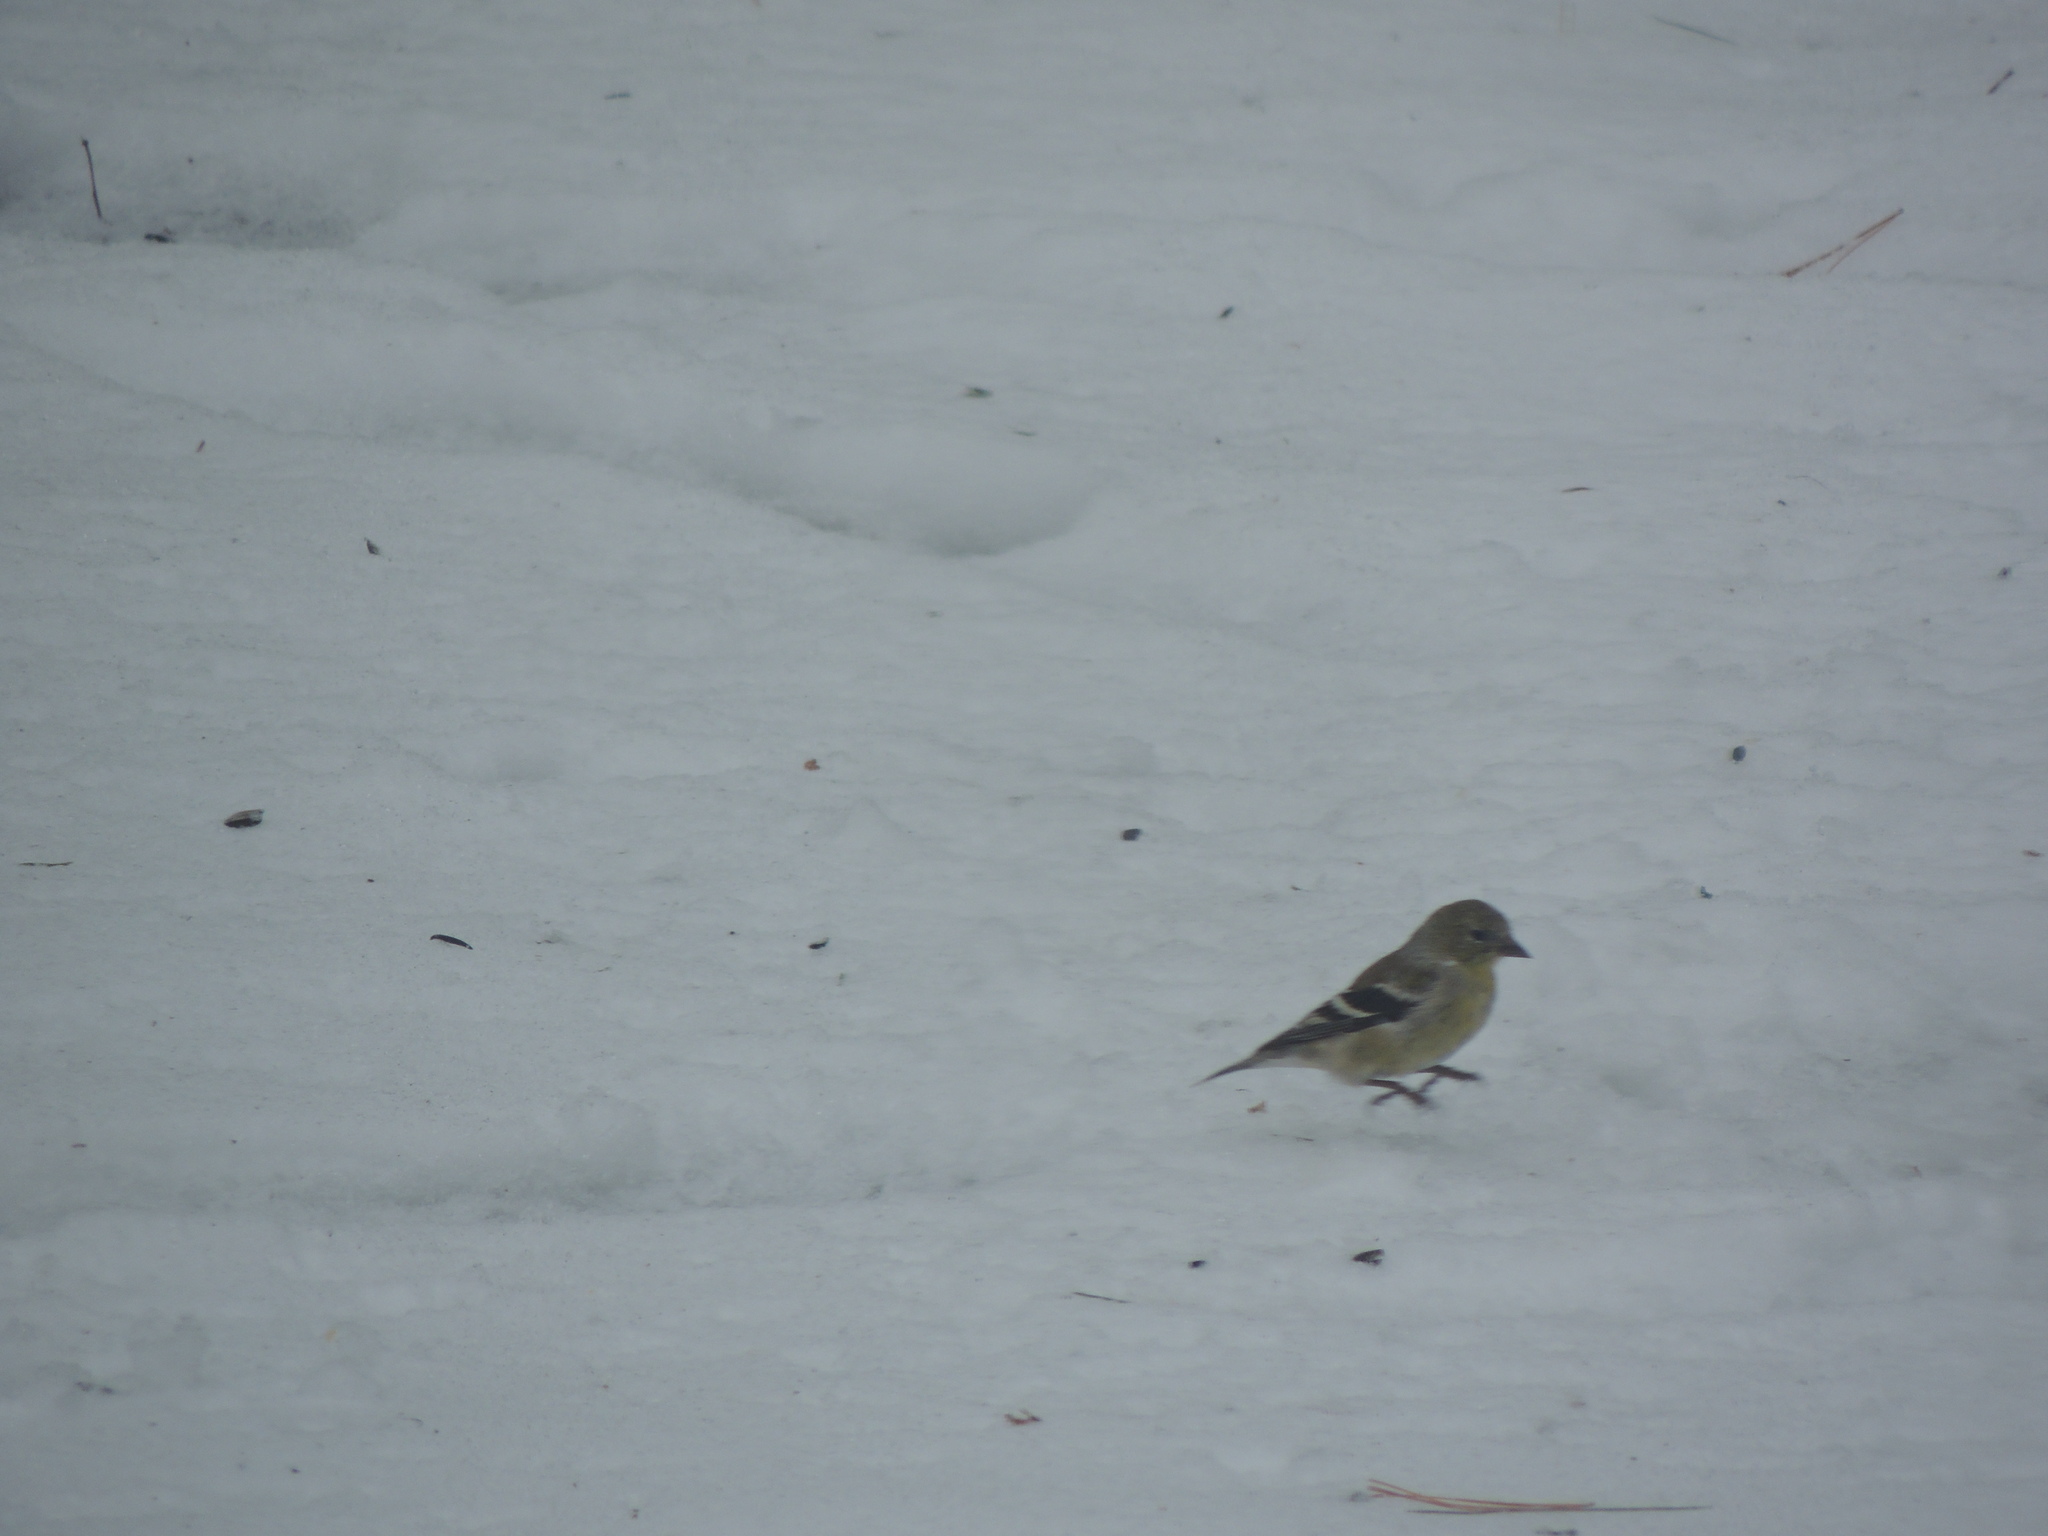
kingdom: Animalia
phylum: Chordata
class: Aves
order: Passeriformes
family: Fringillidae
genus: Spinus
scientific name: Spinus tristis
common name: American goldfinch
